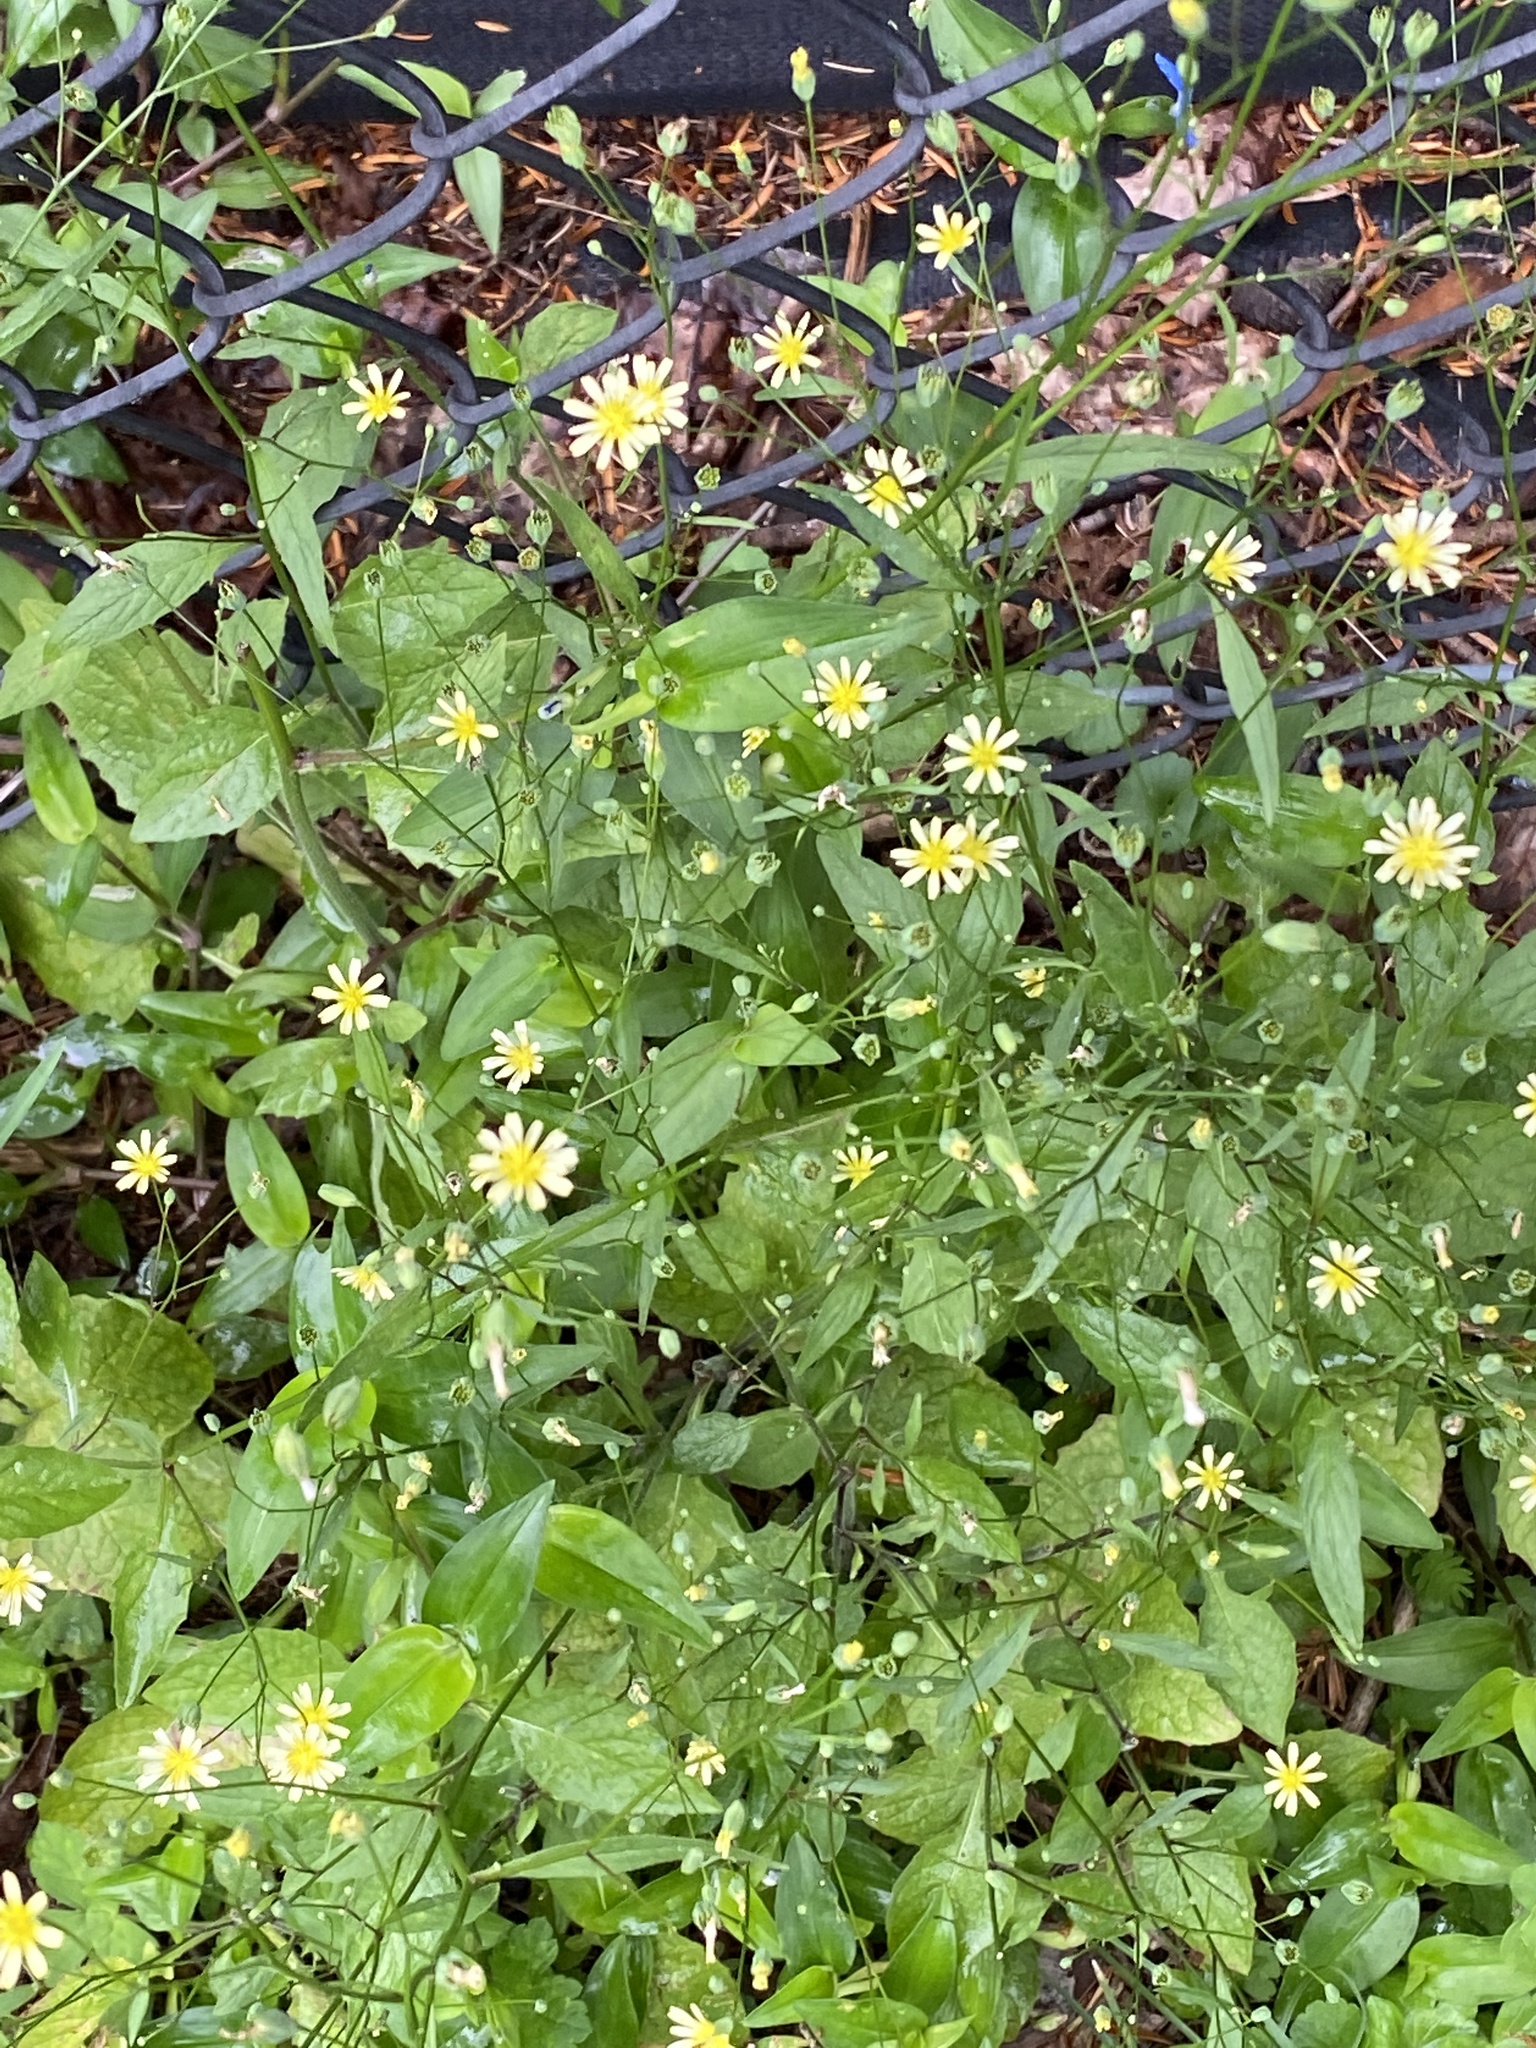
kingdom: Plantae
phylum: Tracheophyta
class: Magnoliopsida
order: Asterales
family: Asteraceae
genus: Lapsana
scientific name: Lapsana communis
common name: Nipplewort
